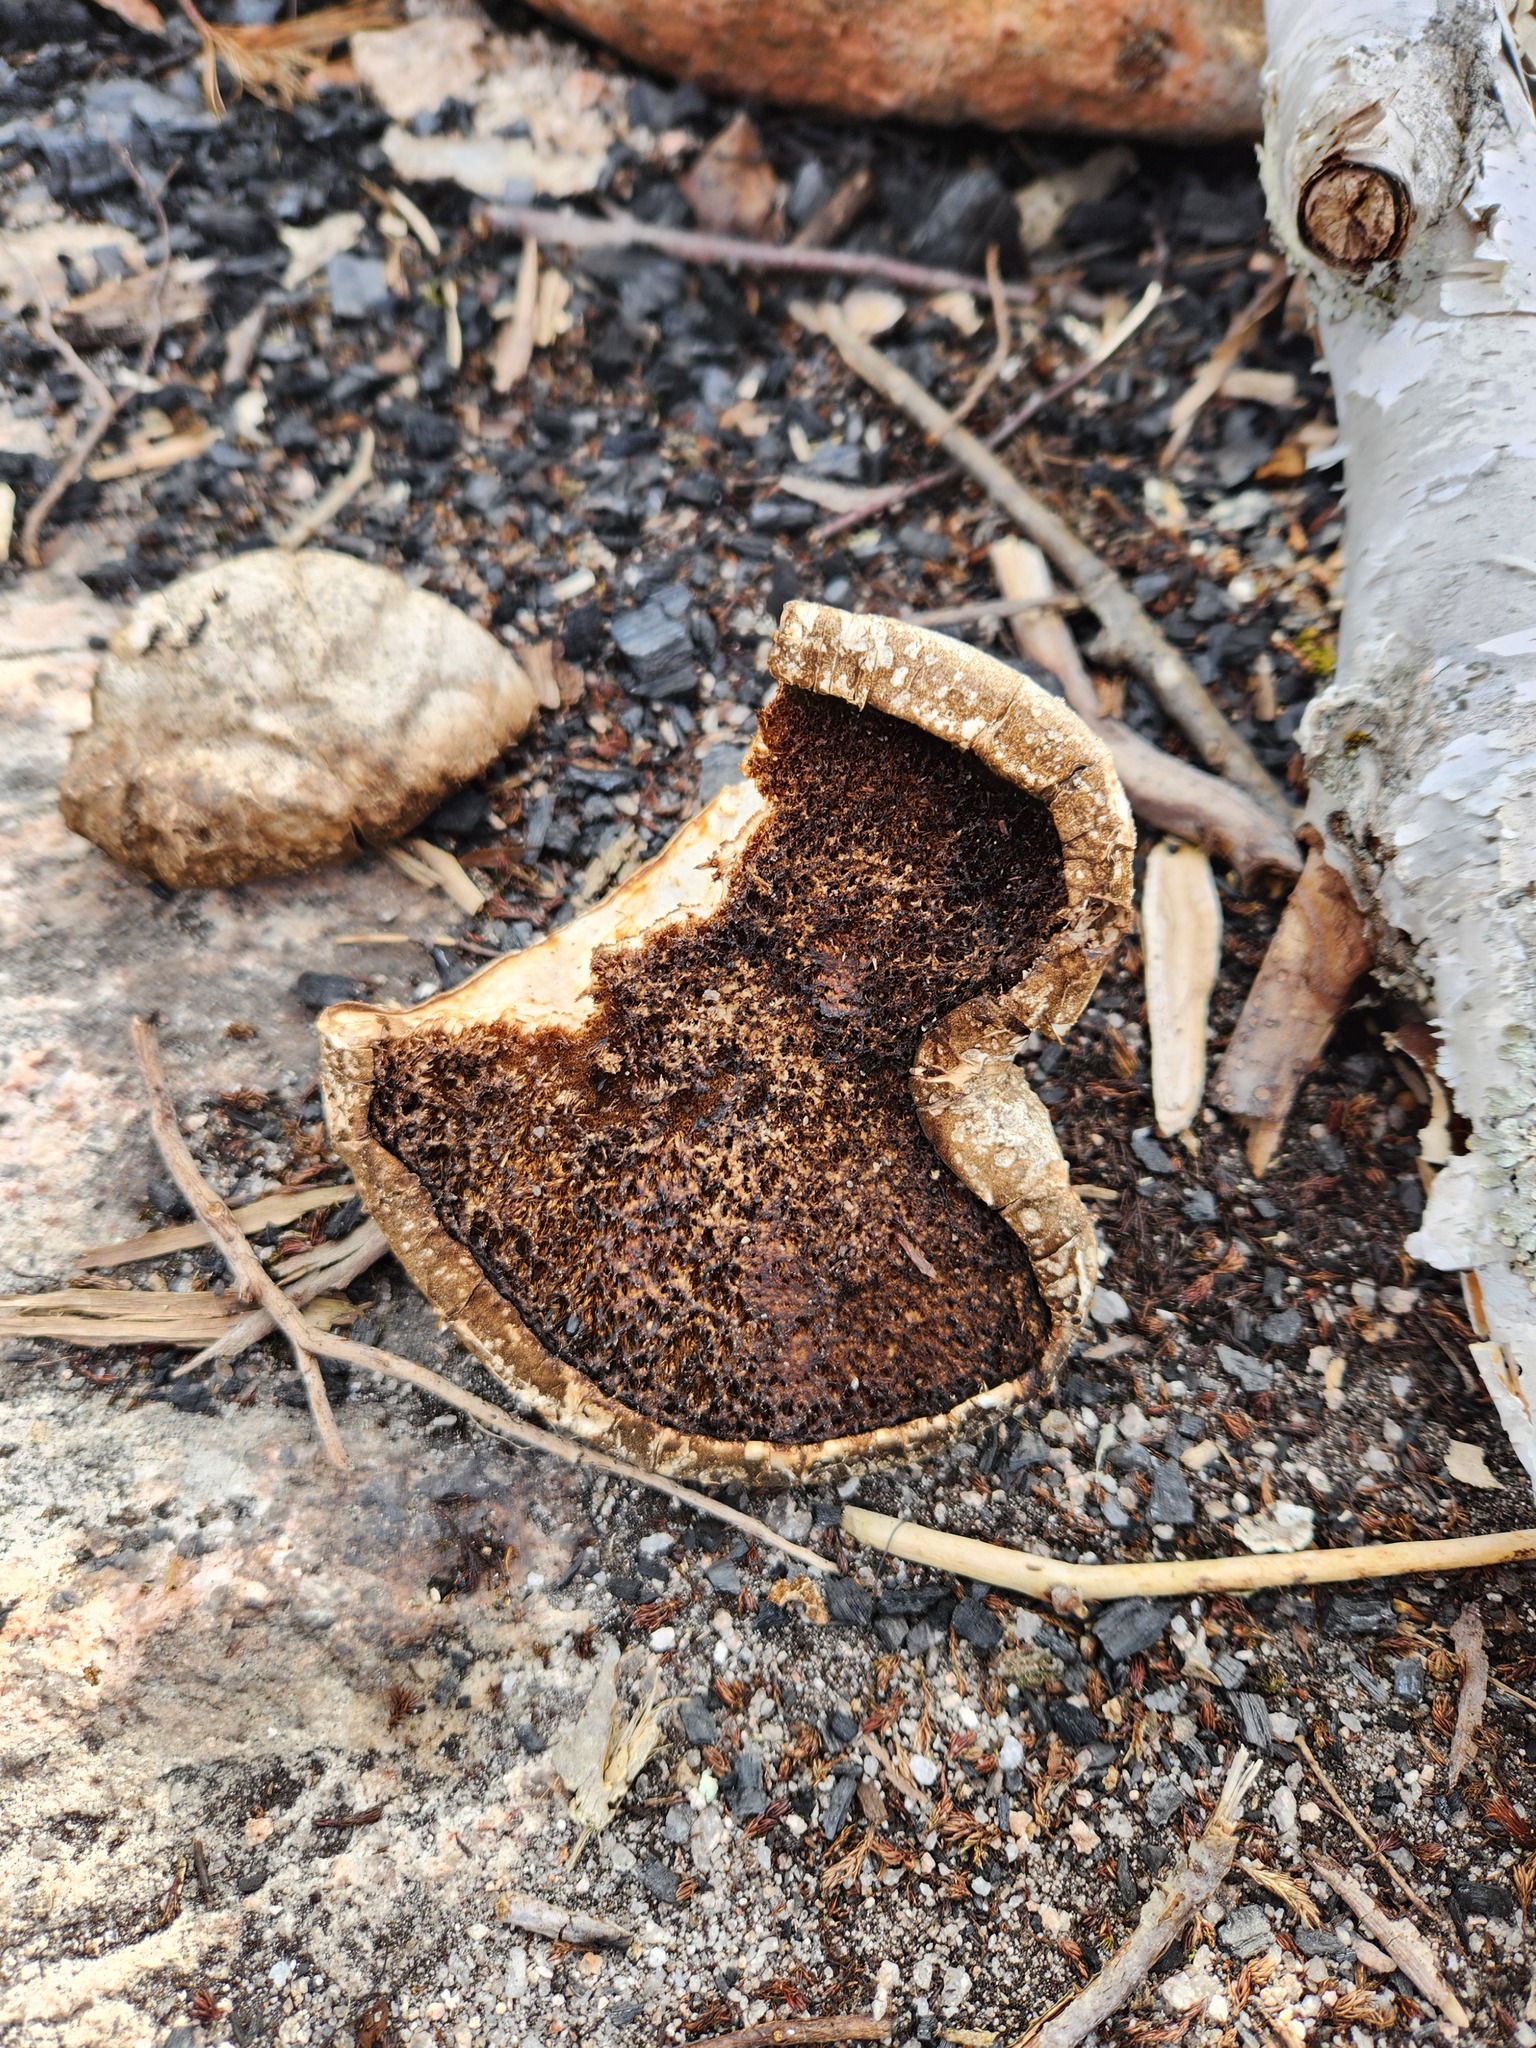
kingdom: Fungi
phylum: Basidiomycota
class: Agaricomycetes
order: Polyporales
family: Fomitopsidaceae
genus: Fomitopsis
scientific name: Fomitopsis betulina
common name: Birch polypore
